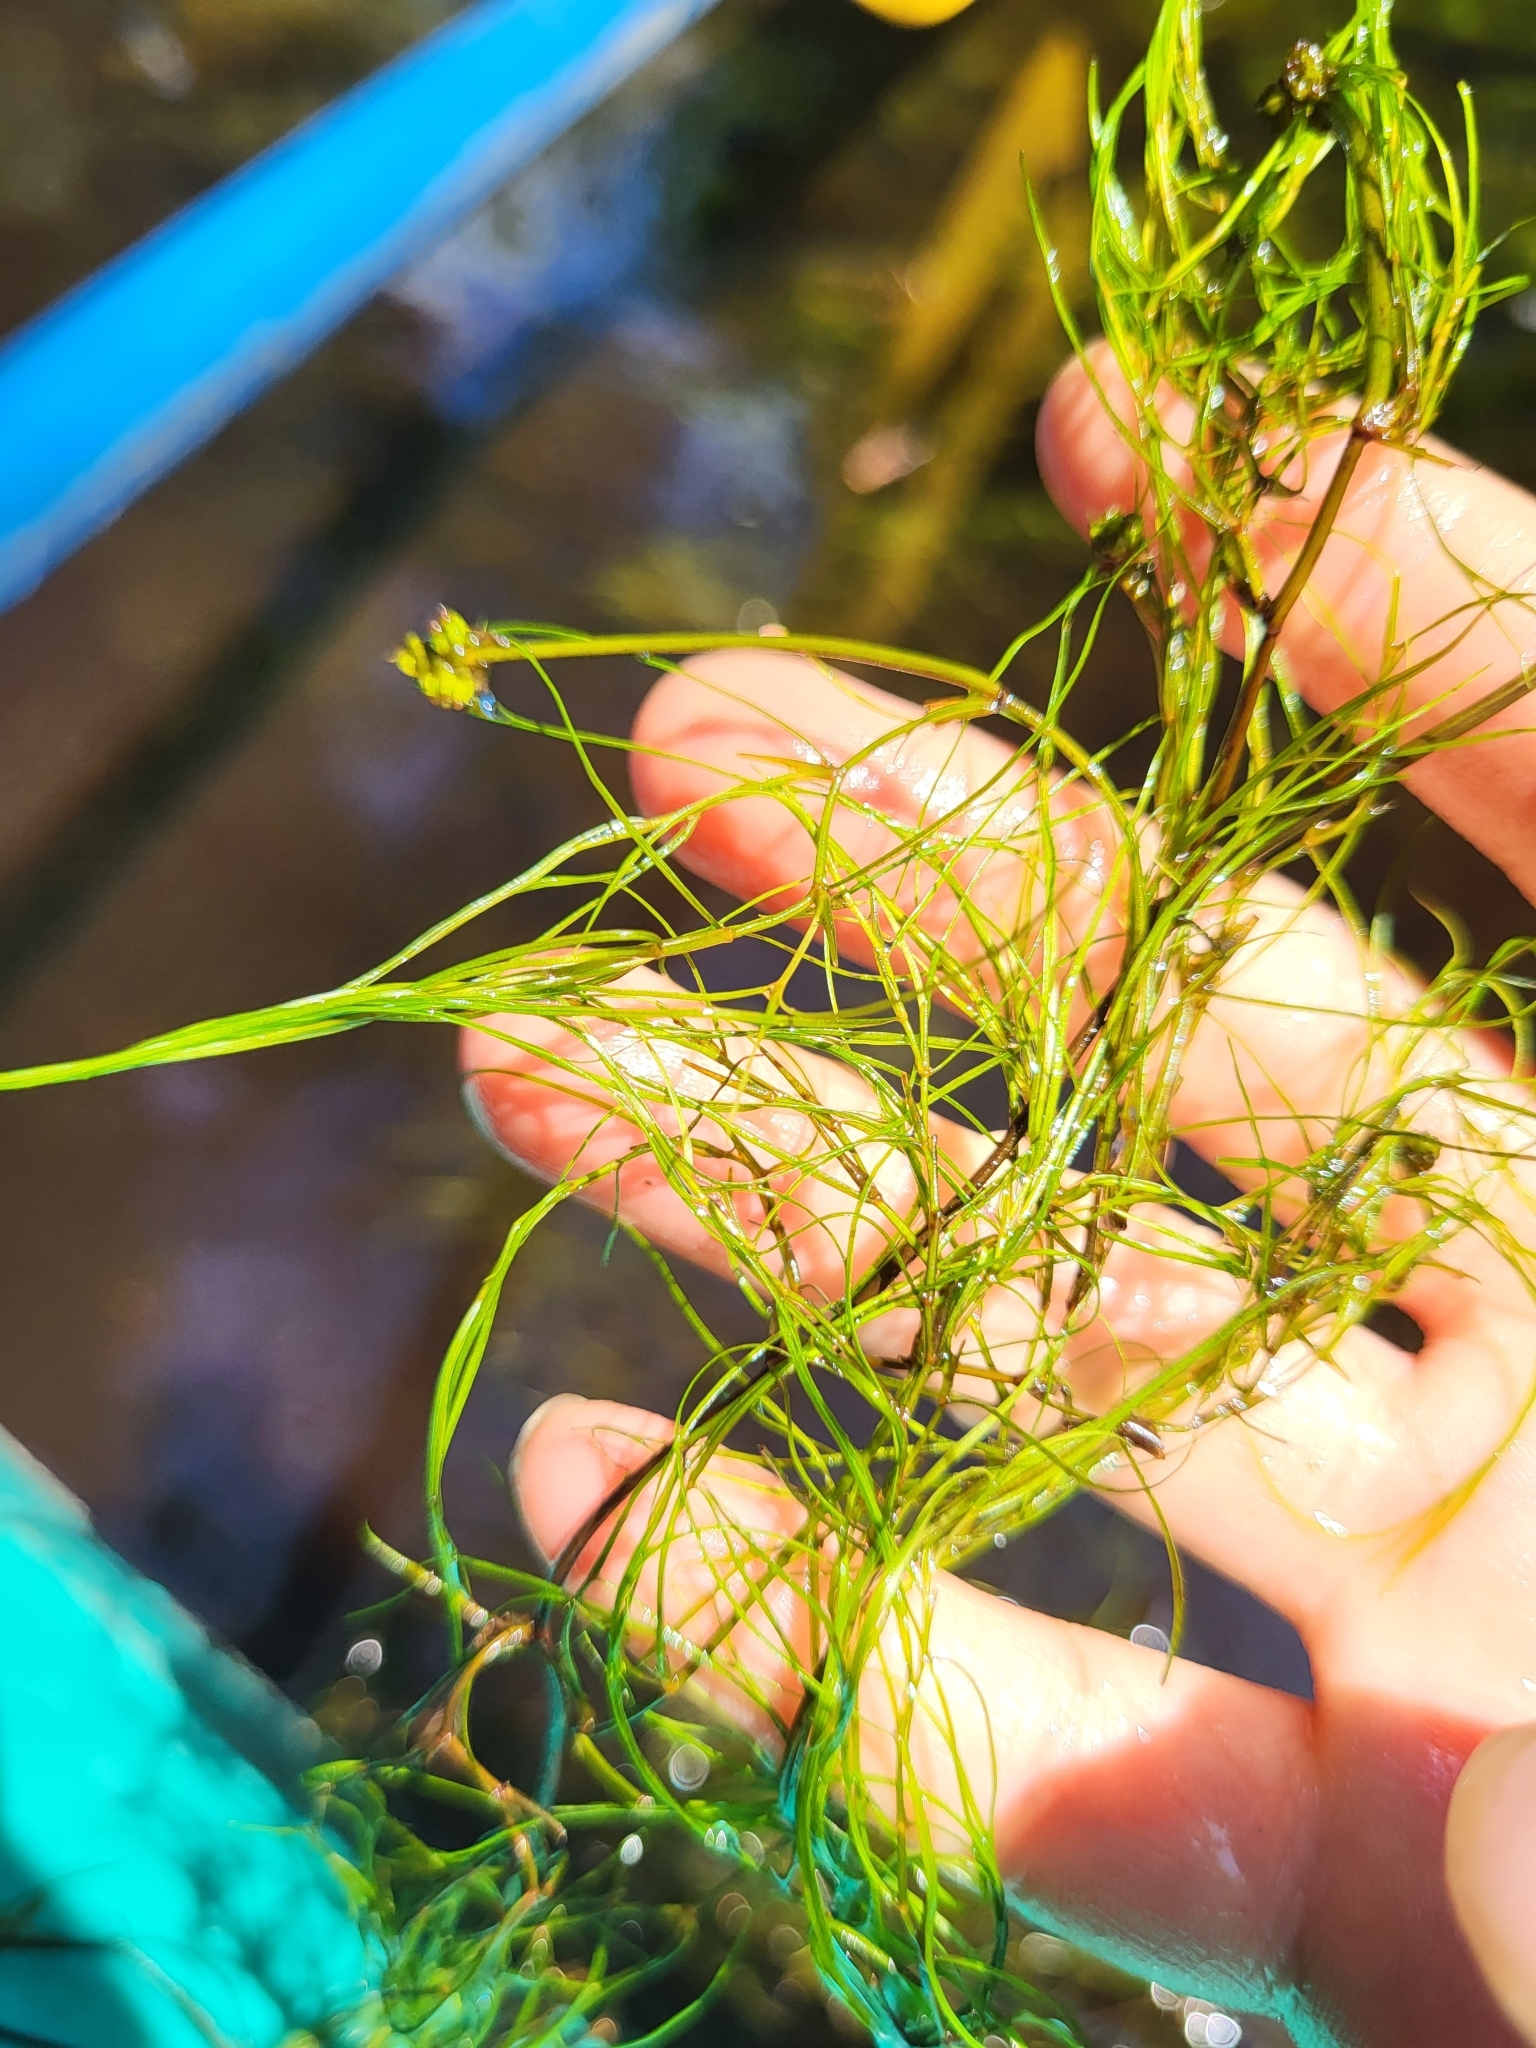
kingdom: Plantae
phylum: Tracheophyta
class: Liliopsida
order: Alismatales
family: Potamogetonaceae
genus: Stuckenia
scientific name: Stuckenia pectinata
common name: Sago pondweed
